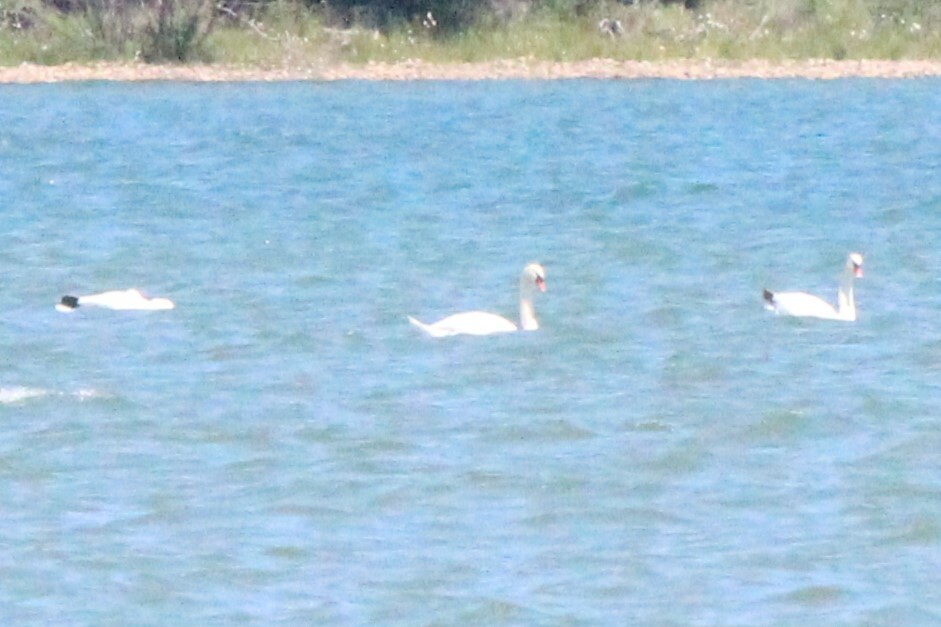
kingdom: Animalia
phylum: Chordata
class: Aves
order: Anseriformes
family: Anatidae
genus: Cygnus
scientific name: Cygnus olor
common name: Mute swan
